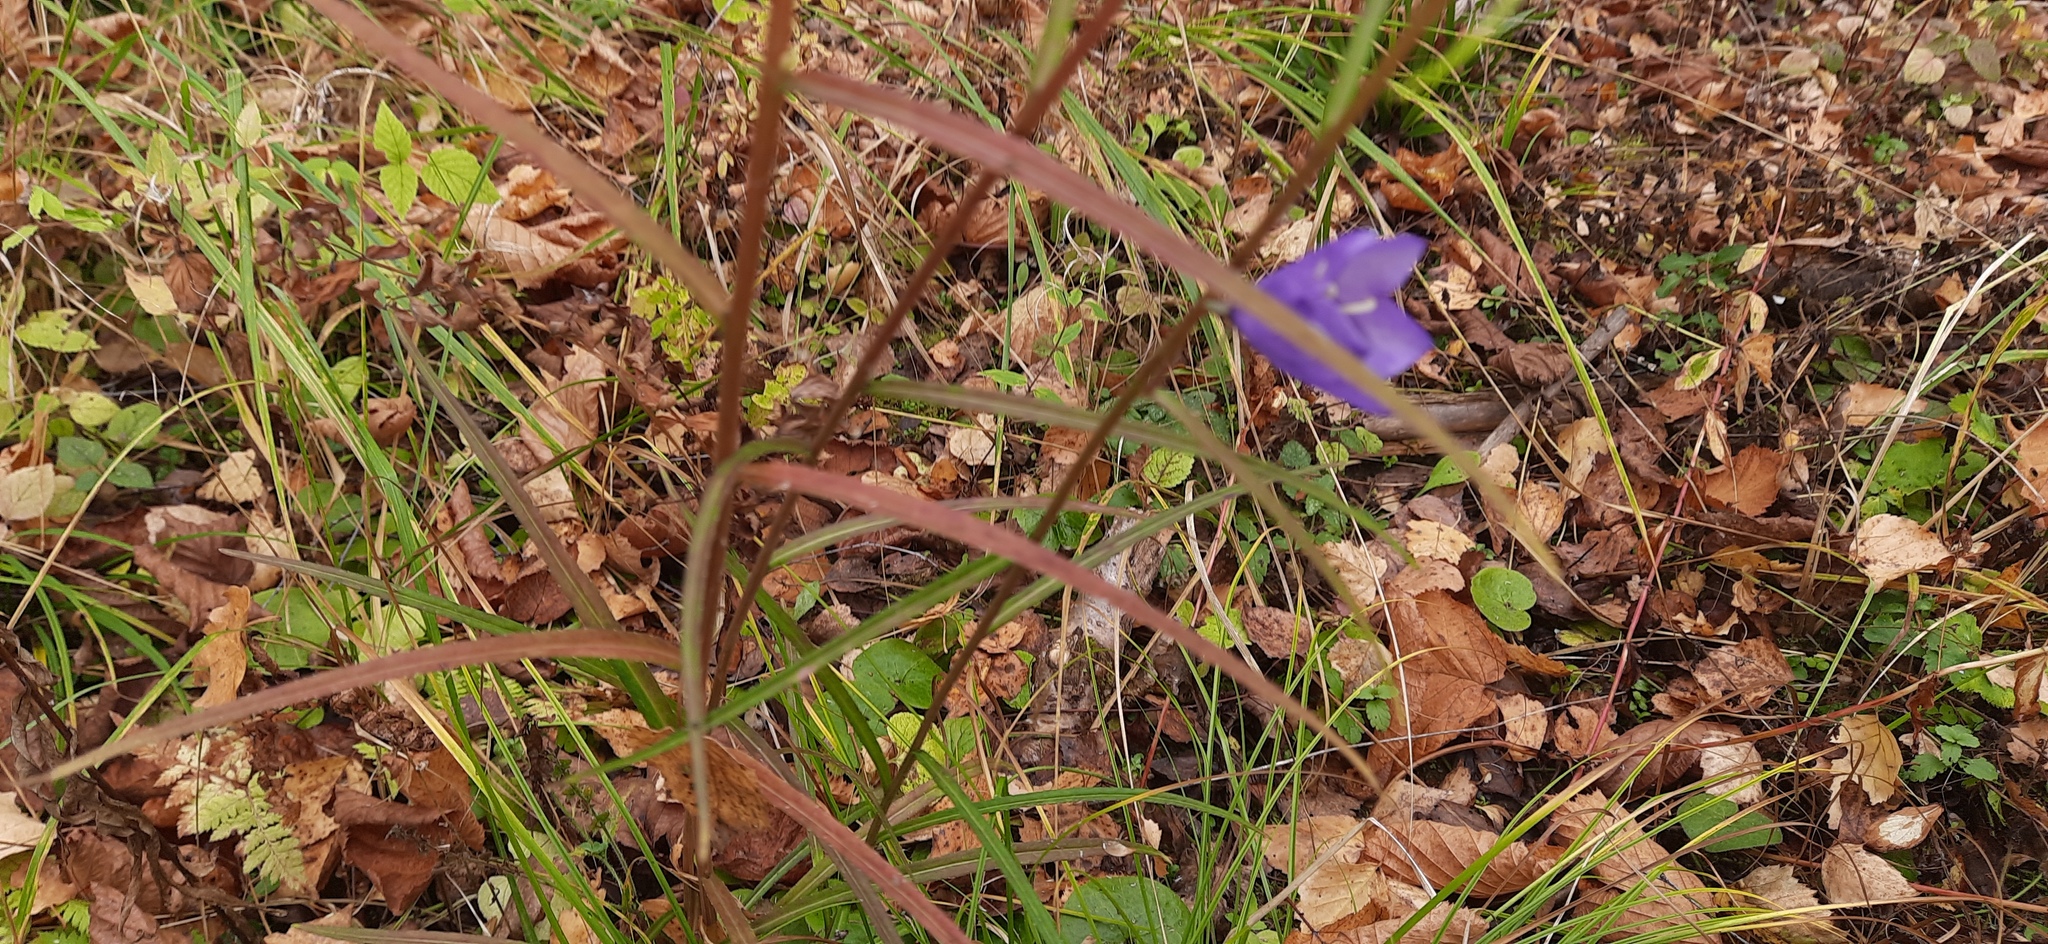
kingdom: Plantae
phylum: Tracheophyta
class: Magnoliopsida
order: Asterales
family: Campanulaceae
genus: Campanula
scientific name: Campanula persicifolia
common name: Peach-leaved bellflower
